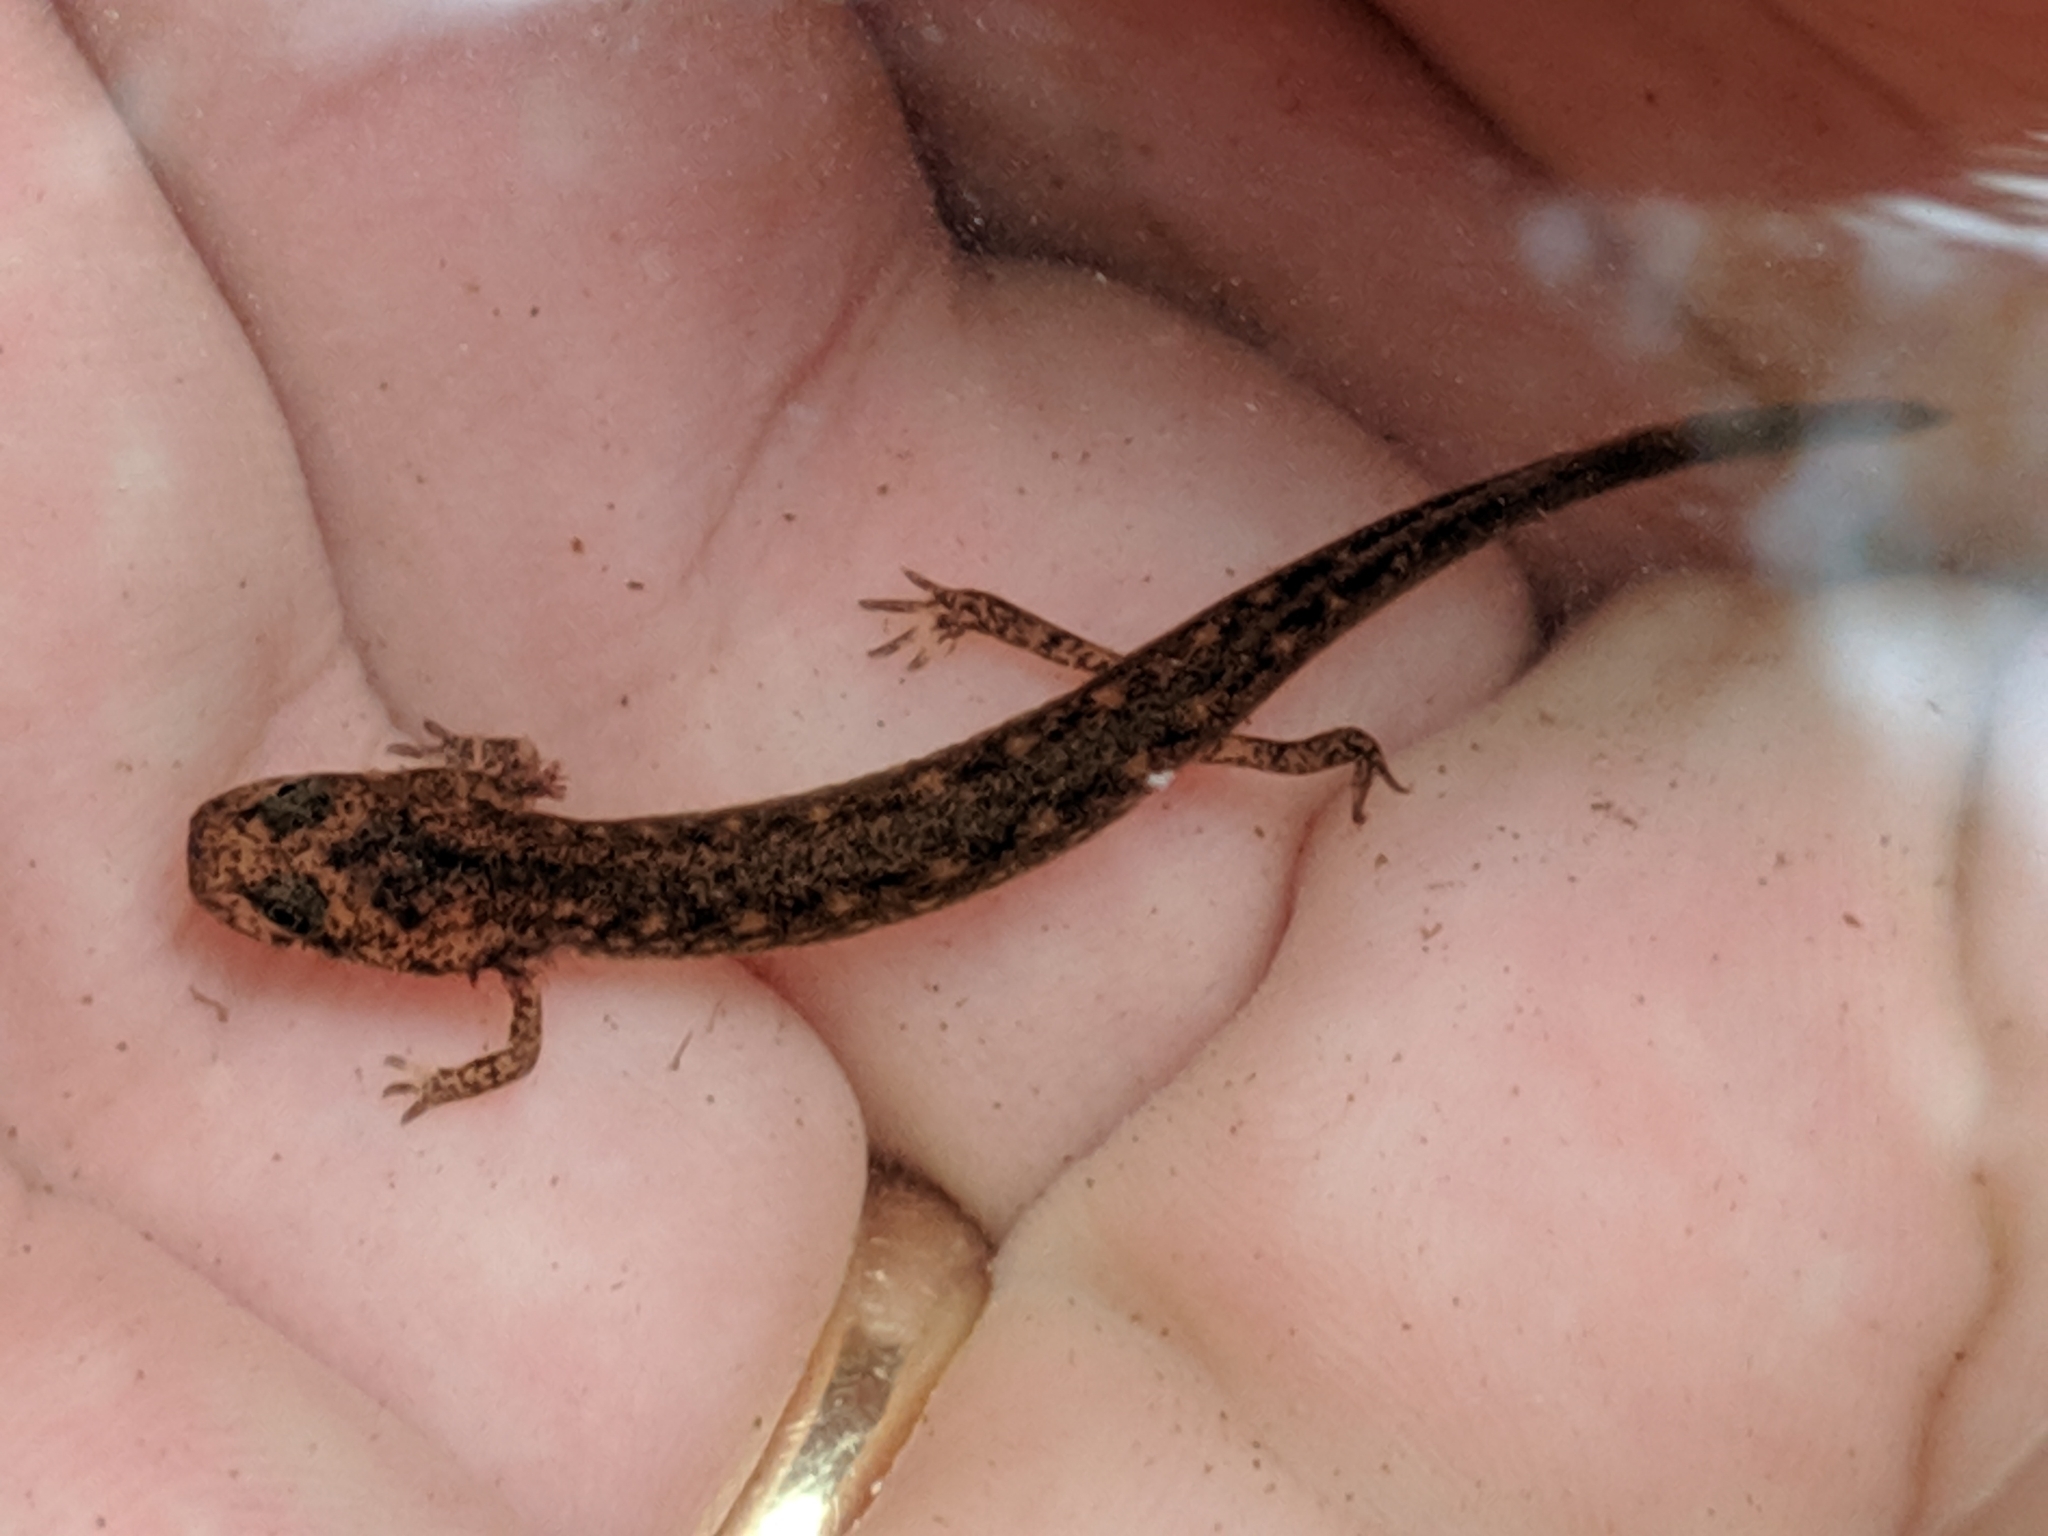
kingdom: Animalia
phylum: Chordata
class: Amphibia
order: Caudata
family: Plethodontidae
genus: Eurycea
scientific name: Eurycea bislineata
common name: Northern two-lined salamander
